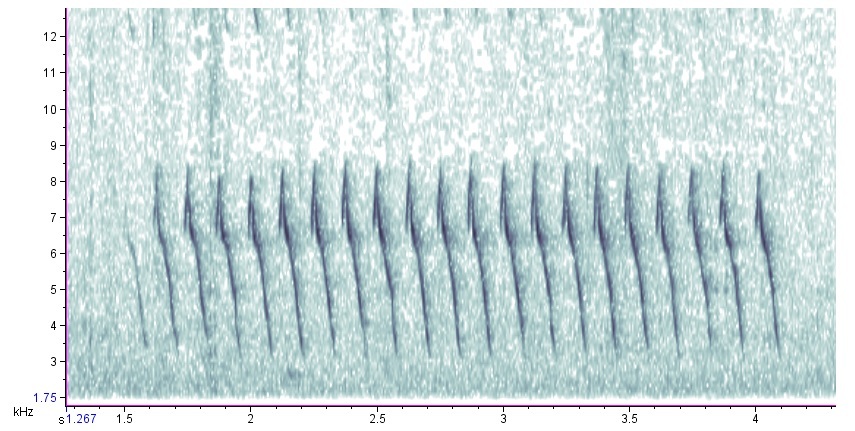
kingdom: Animalia
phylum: Chordata
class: Aves
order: Passeriformes
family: Passerellidae
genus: Spizella
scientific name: Spizella passerina
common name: Chipping sparrow
